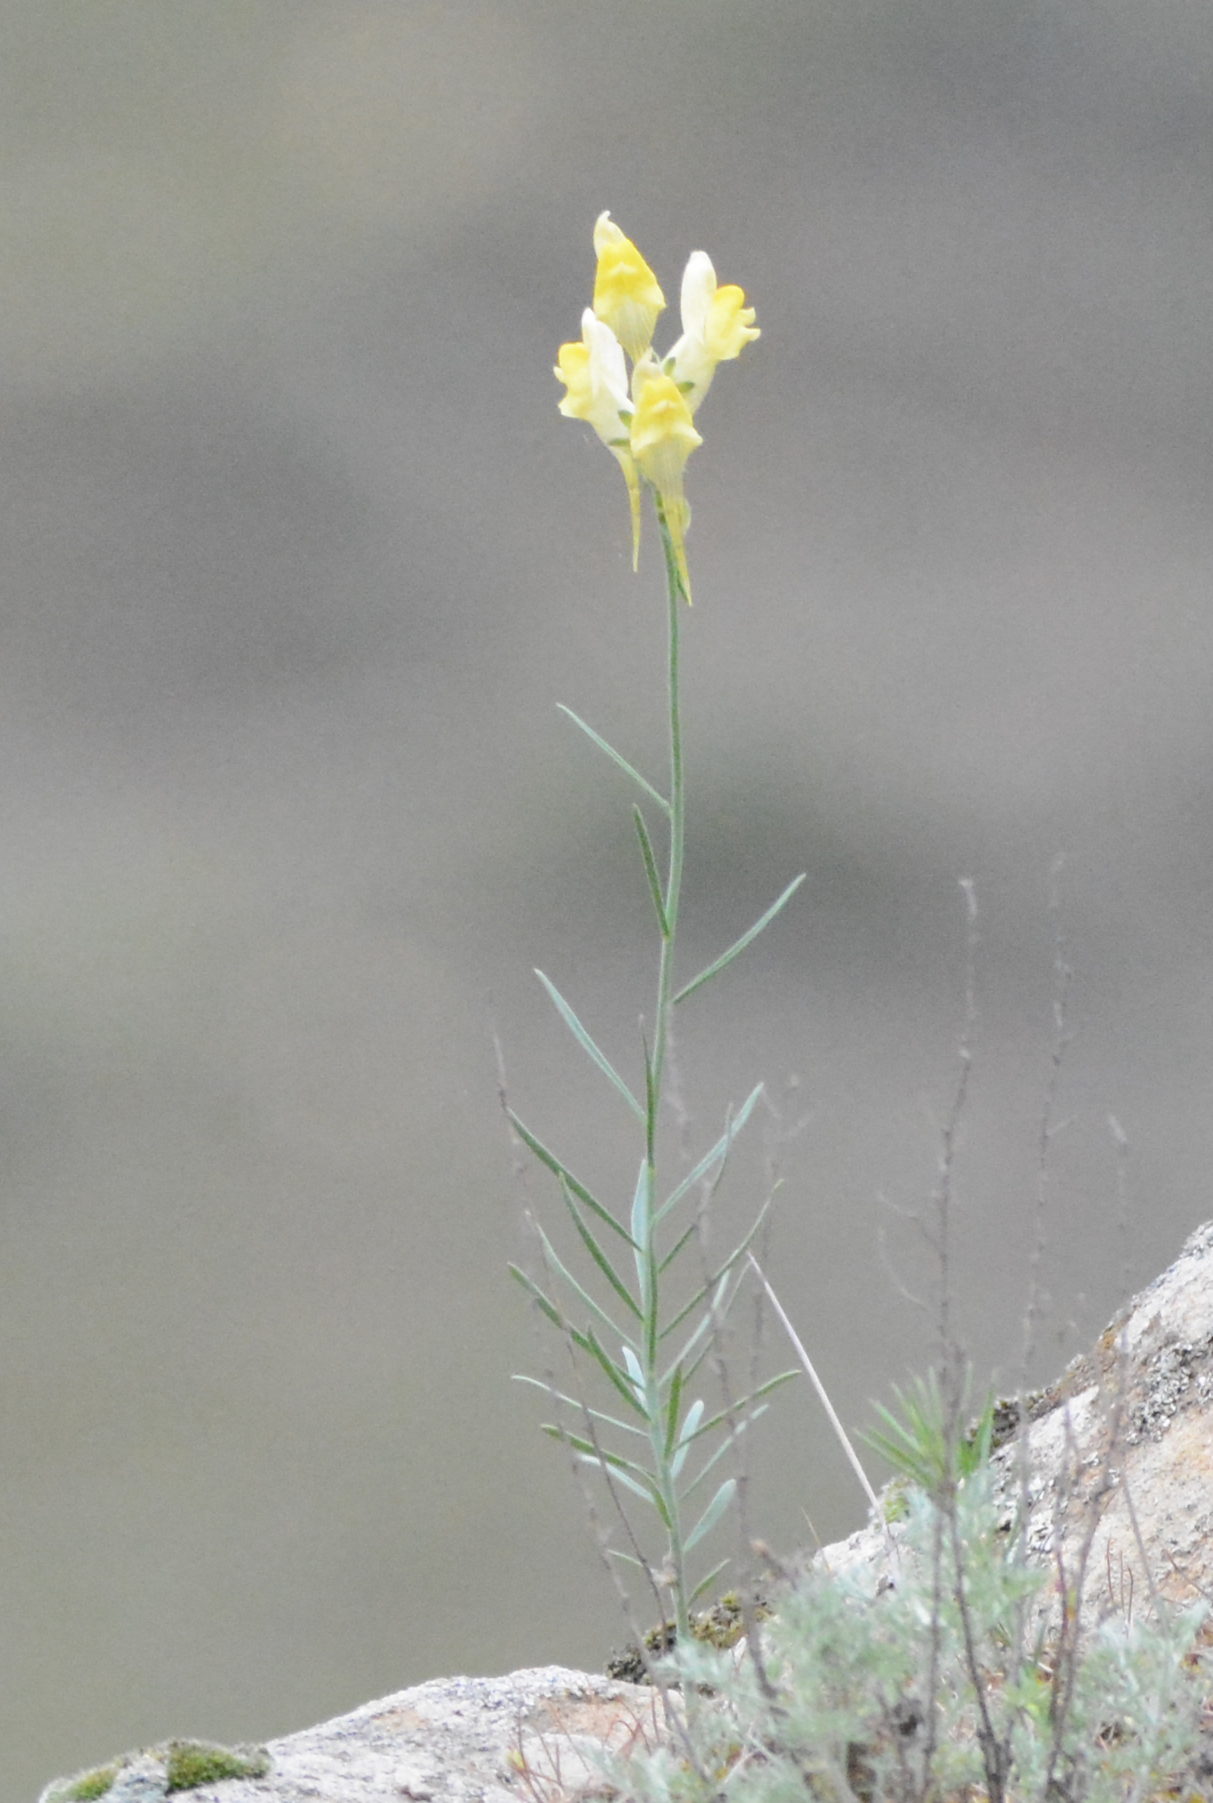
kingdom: Plantae
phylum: Tracheophyta
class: Magnoliopsida
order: Lamiales
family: Plantaginaceae
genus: Linaria
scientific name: Linaria vulgaris
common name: Butter and eggs
